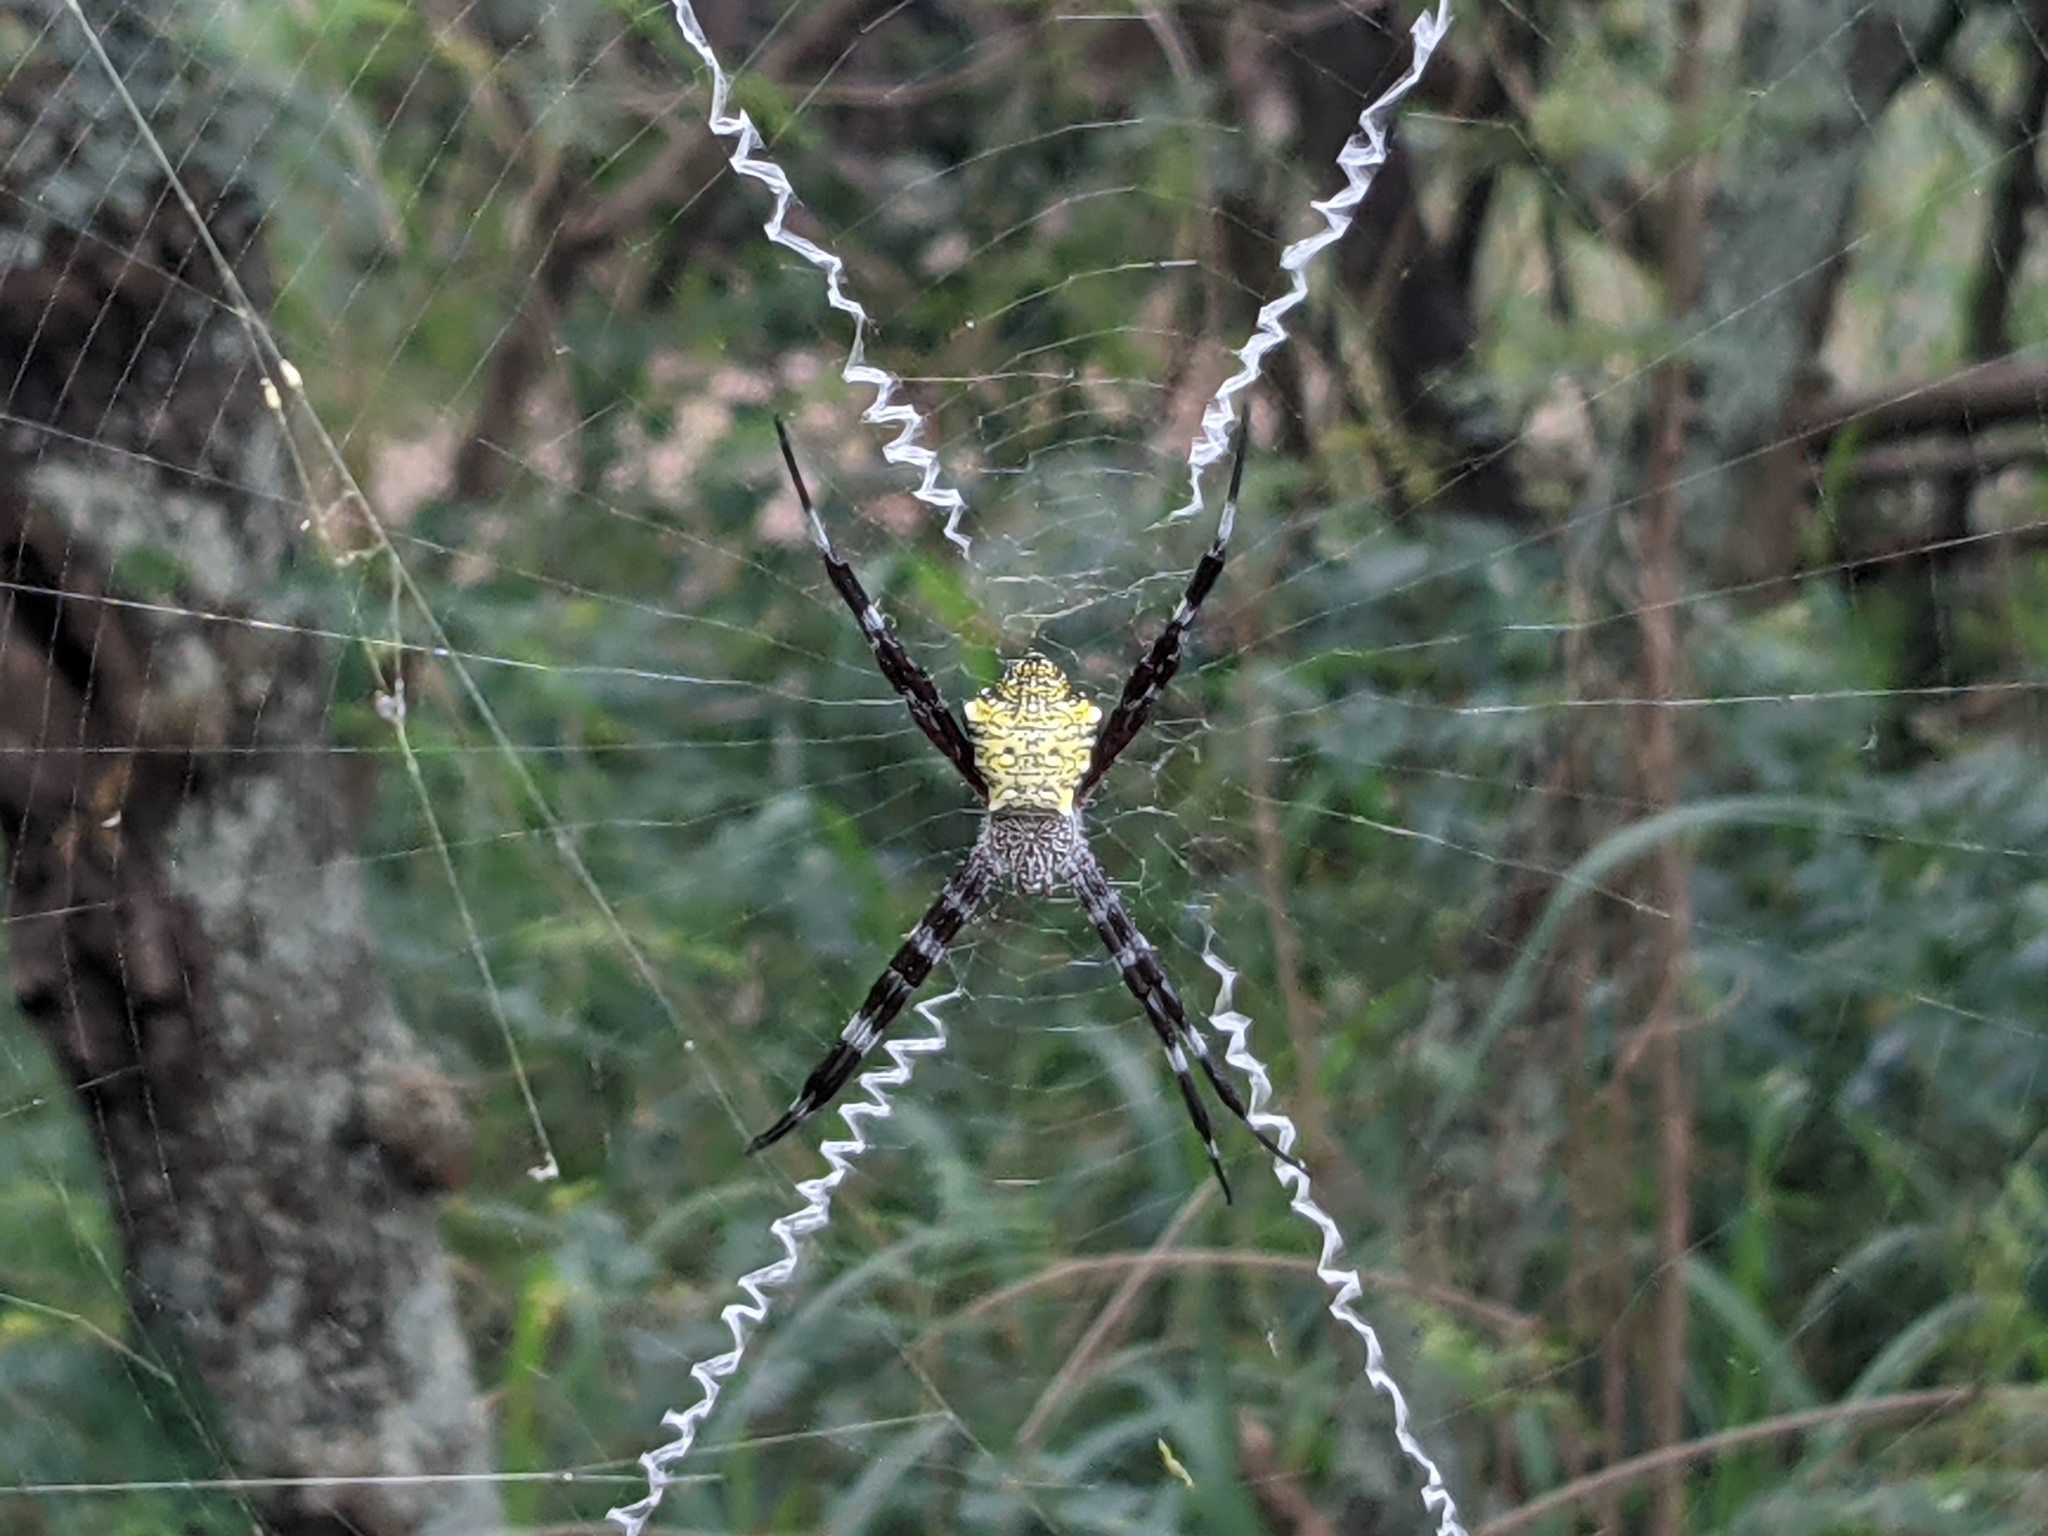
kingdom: Animalia
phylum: Arthropoda
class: Arachnida
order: Araneae
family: Araneidae
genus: Argiope
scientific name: Argiope appensa
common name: Garden spider
